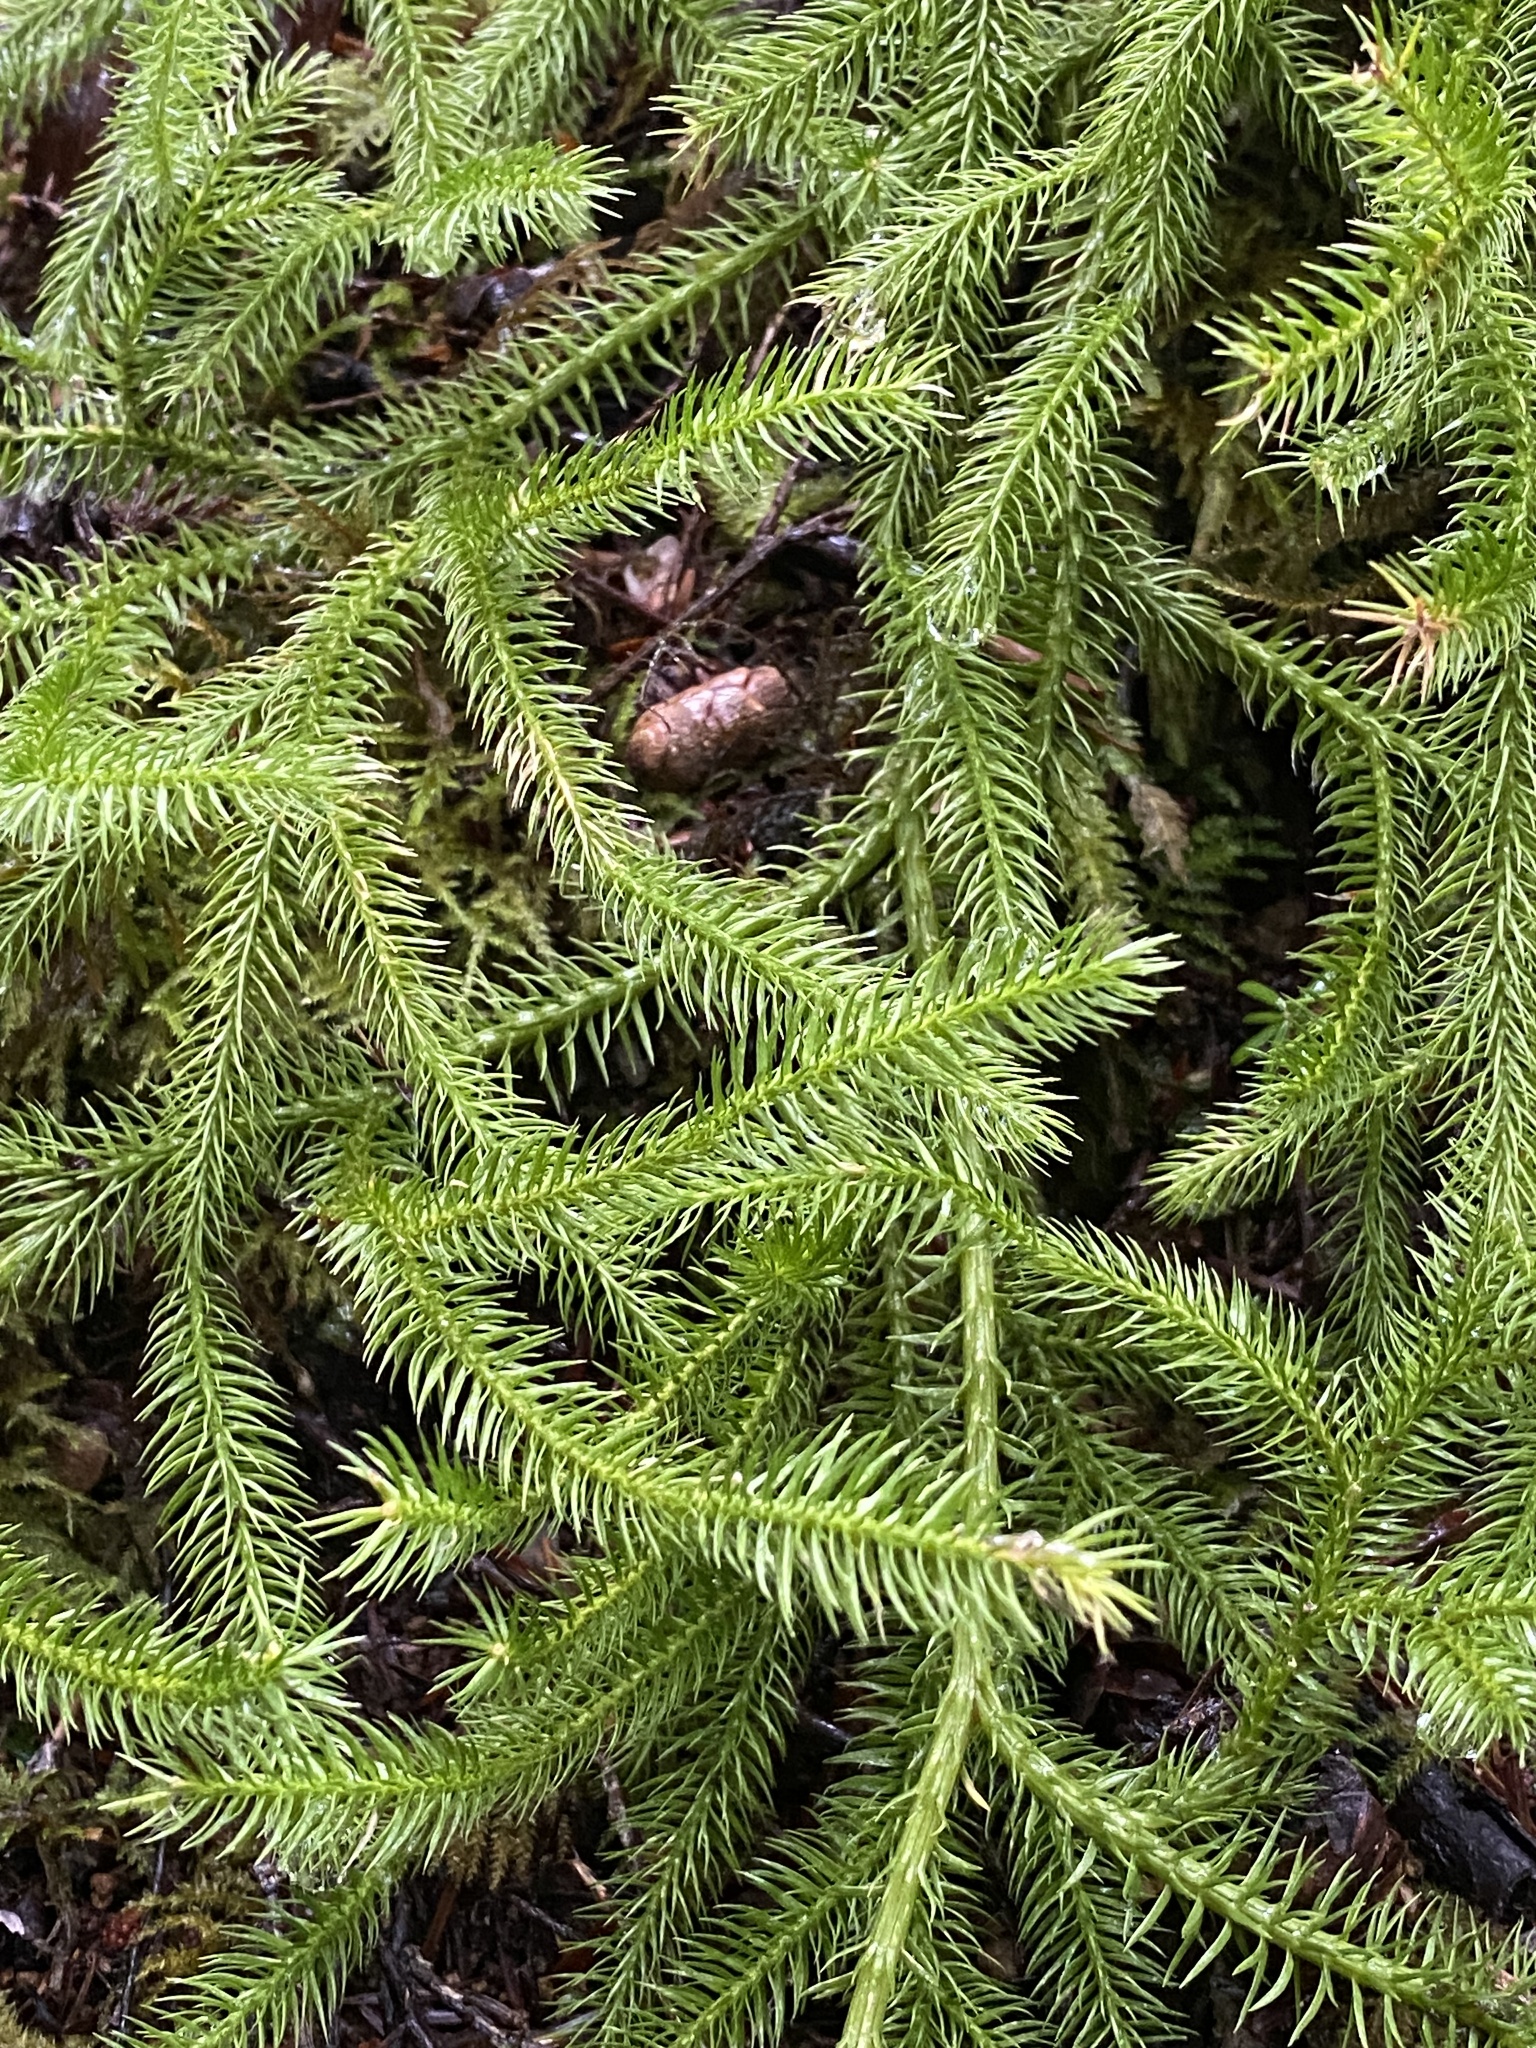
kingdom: Plantae
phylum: Tracheophyta
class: Lycopodiopsida
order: Lycopodiales
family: Lycopodiaceae
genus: Lycopodium
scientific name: Lycopodium clavatum
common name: Stag's-horn clubmoss
